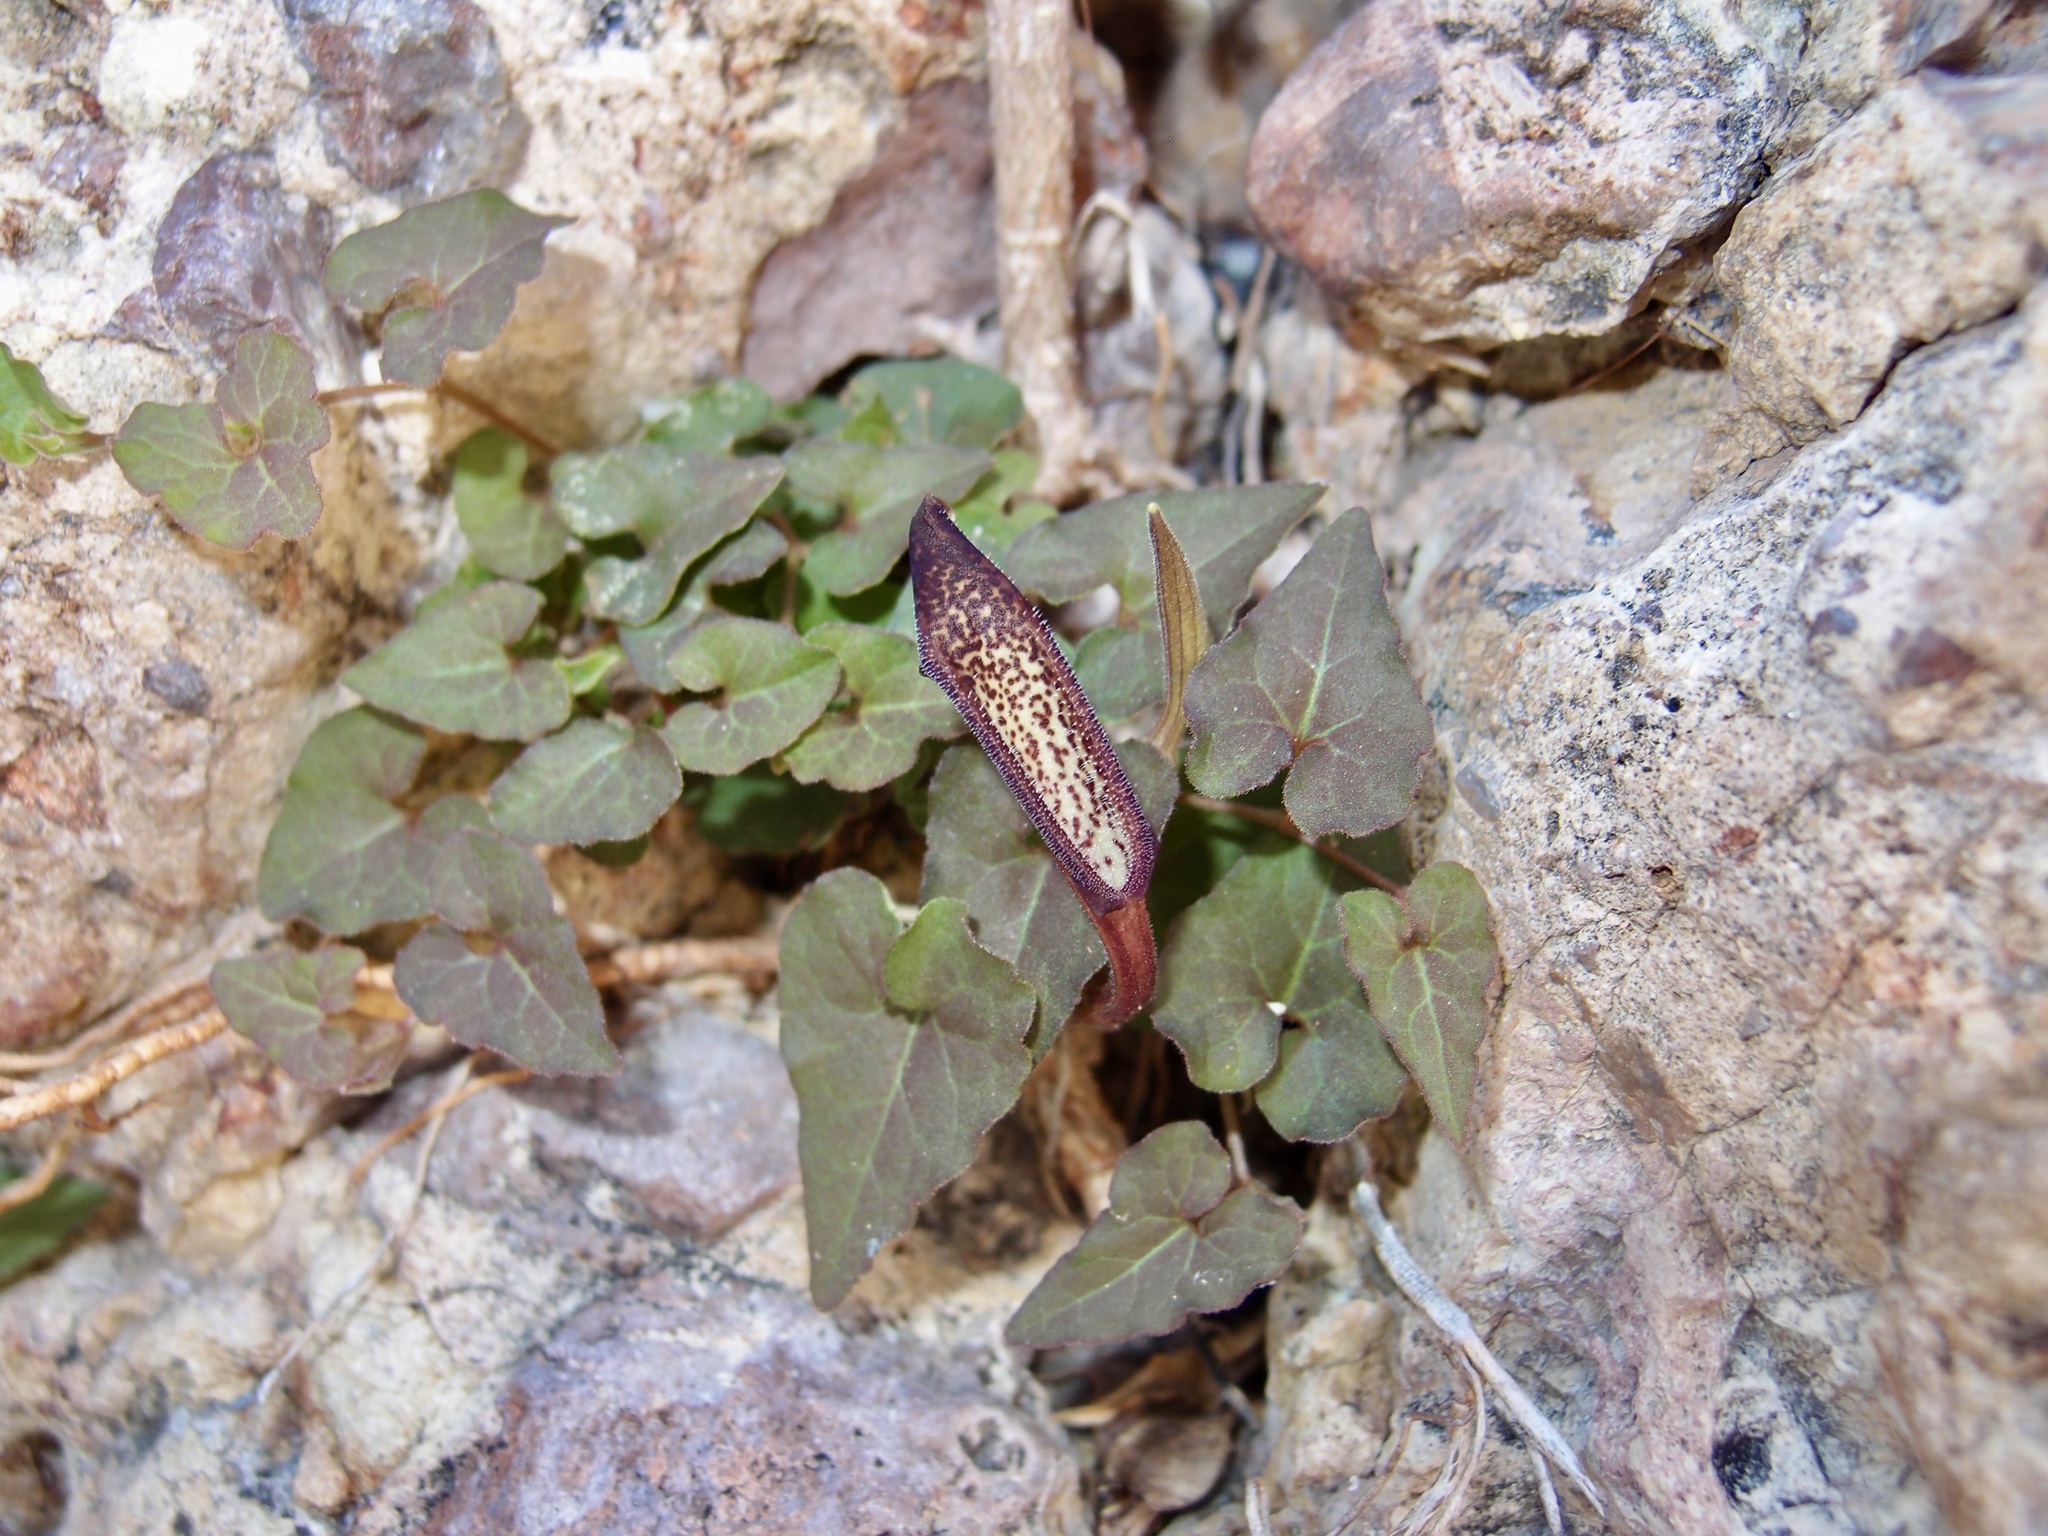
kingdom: Plantae
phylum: Tracheophyta
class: Magnoliopsida
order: Piperales
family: Aristolochiaceae
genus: Aristolochia
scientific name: Aristolochia watsonii
